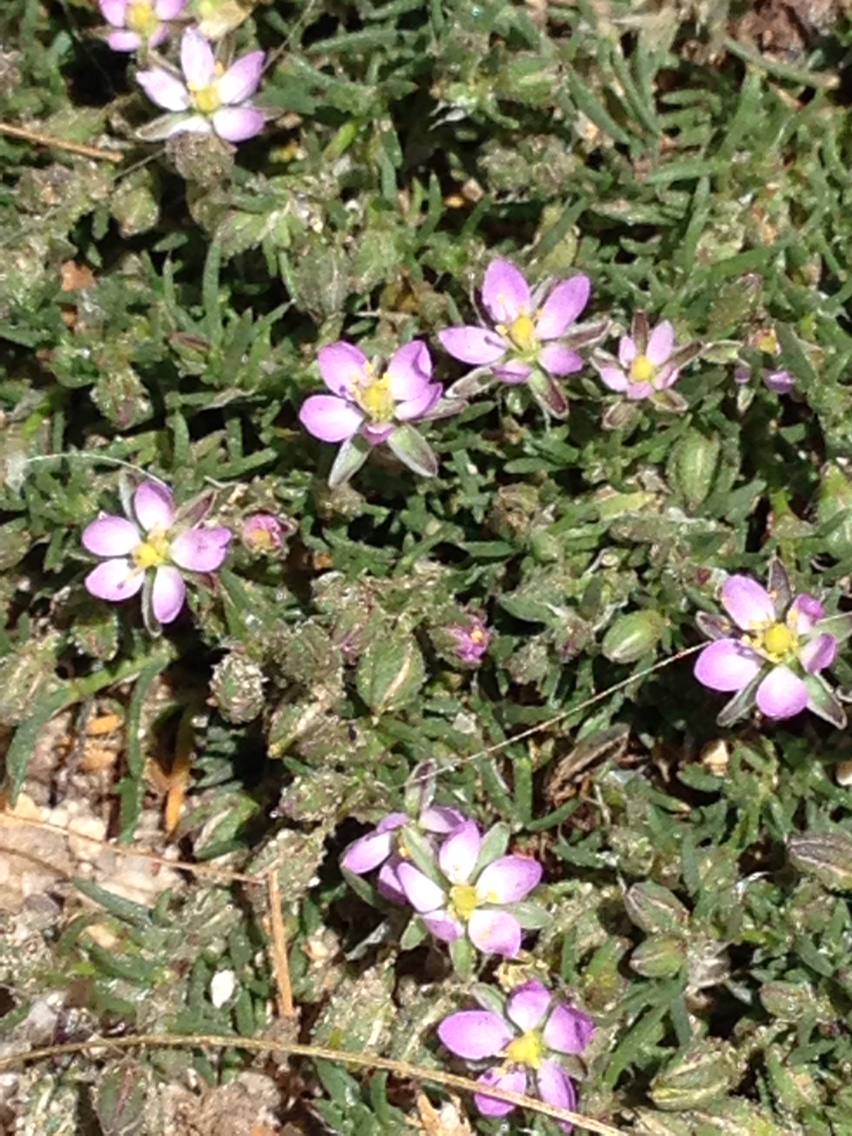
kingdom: Plantae
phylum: Tracheophyta
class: Magnoliopsida
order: Caryophyllales
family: Caryophyllaceae
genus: Spergularia
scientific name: Spergularia rubra
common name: Red sand-spurrey
